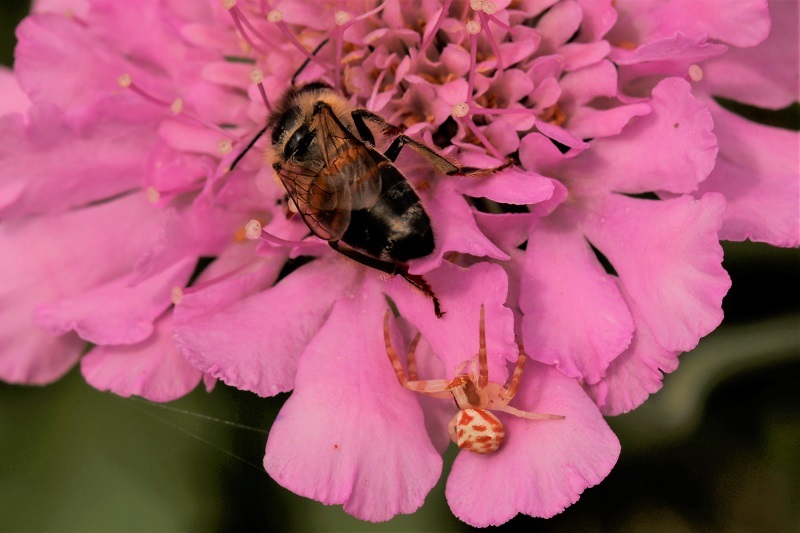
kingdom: Animalia
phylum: Arthropoda
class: Insecta
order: Hymenoptera
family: Apidae
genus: Apis
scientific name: Apis mellifera
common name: Honey bee
